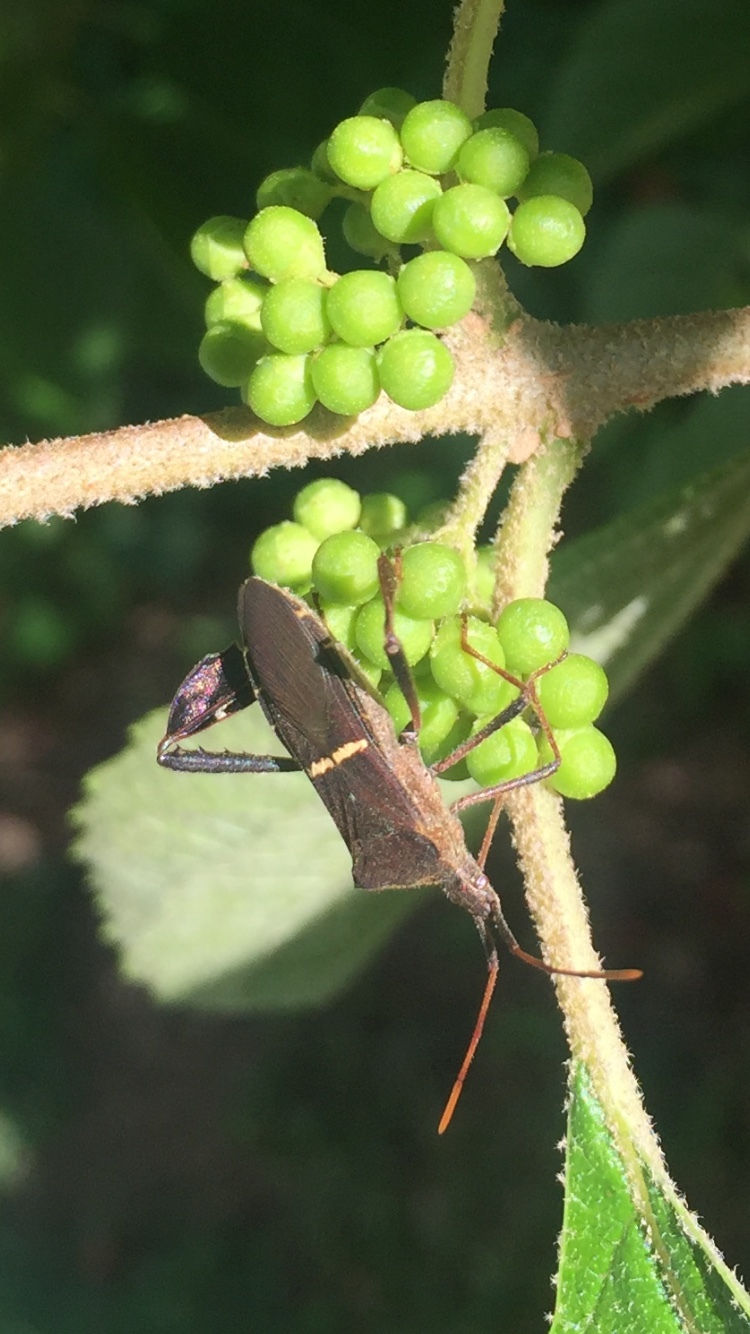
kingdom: Animalia
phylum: Arthropoda
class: Insecta
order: Hemiptera
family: Coreidae
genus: Leptoglossus
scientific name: Leptoglossus phyllopus
